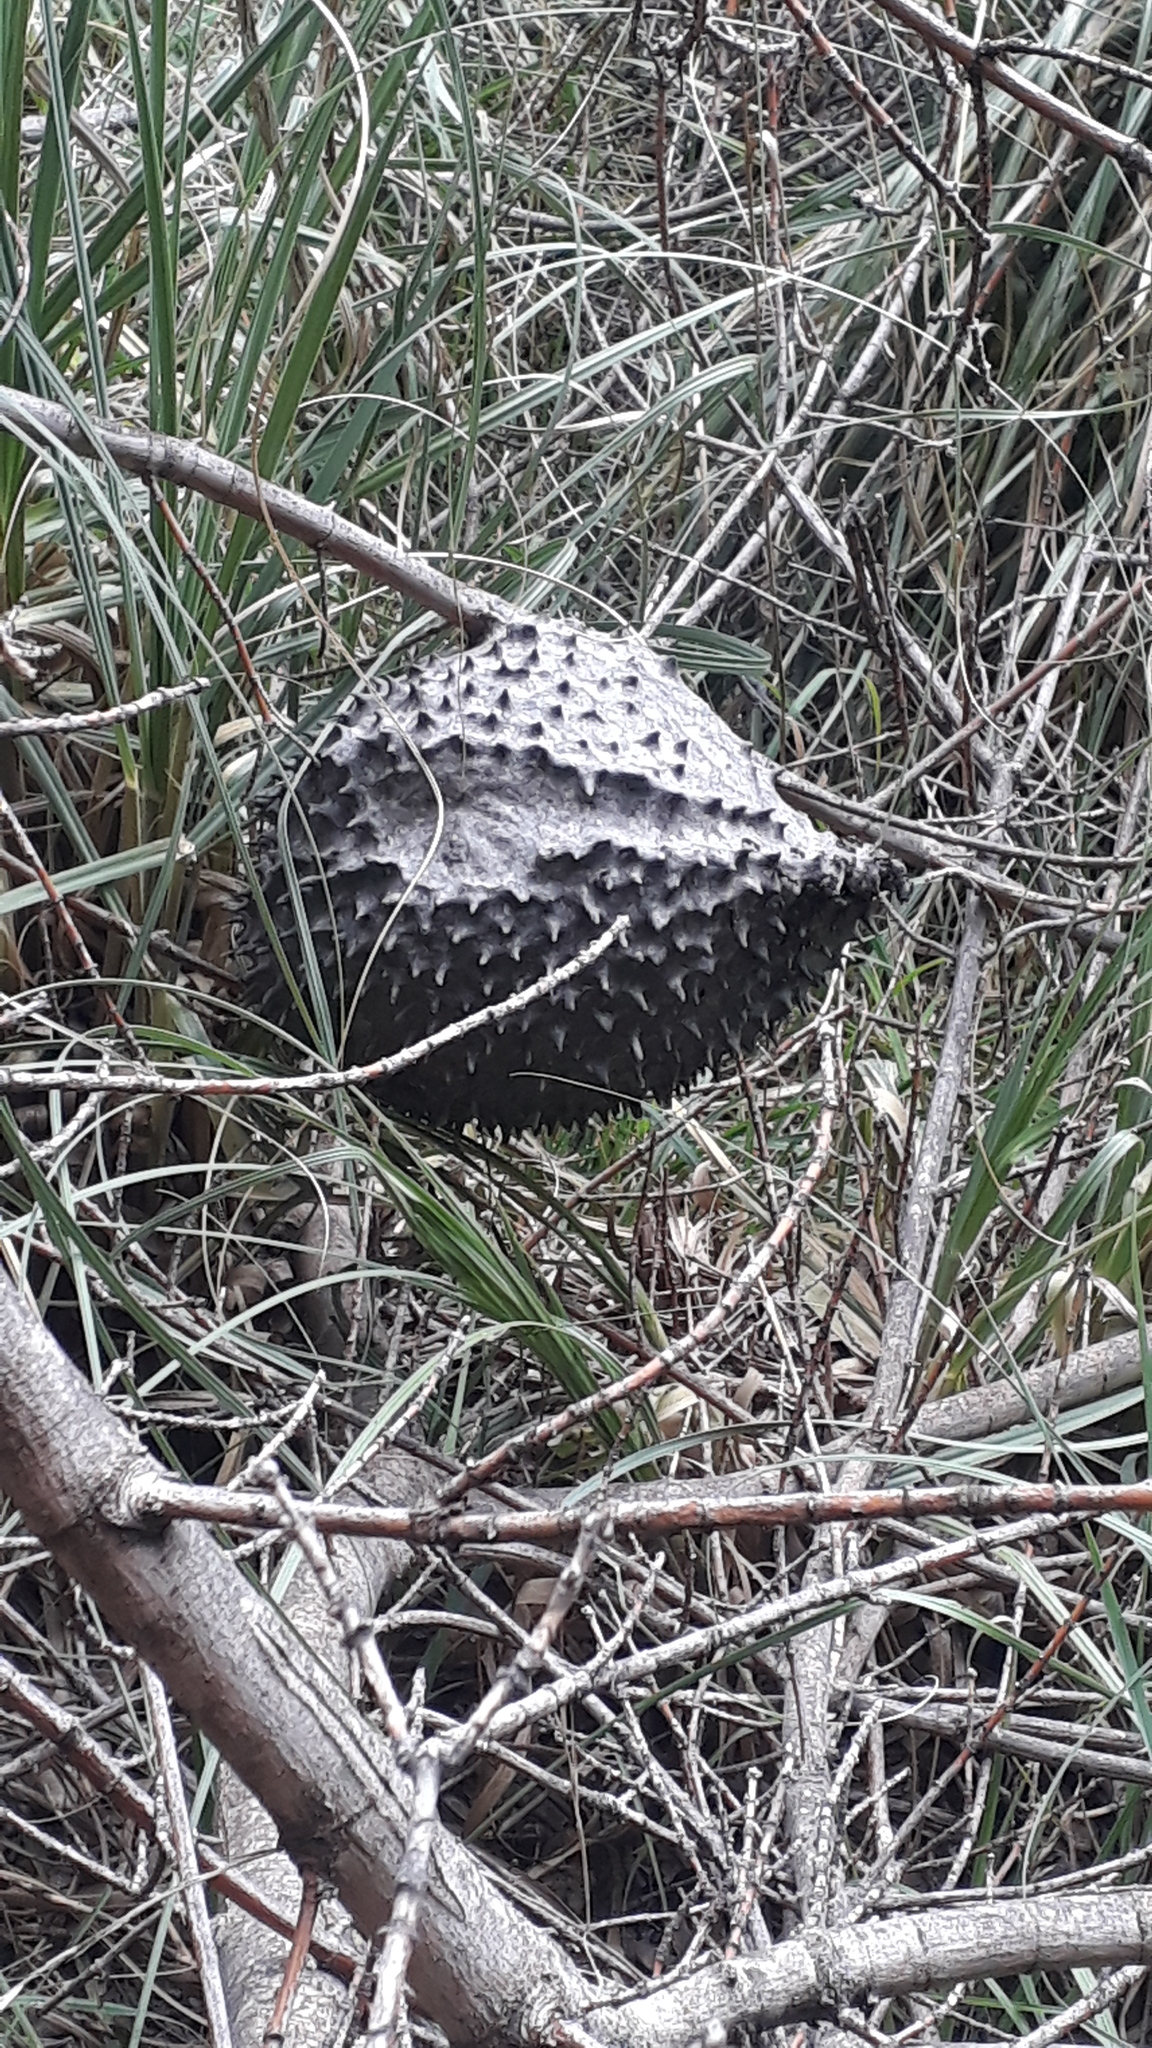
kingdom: Animalia
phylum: Arthropoda
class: Insecta
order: Hymenoptera
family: Eumenidae
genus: Polybia
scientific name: Polybia scutellaris
